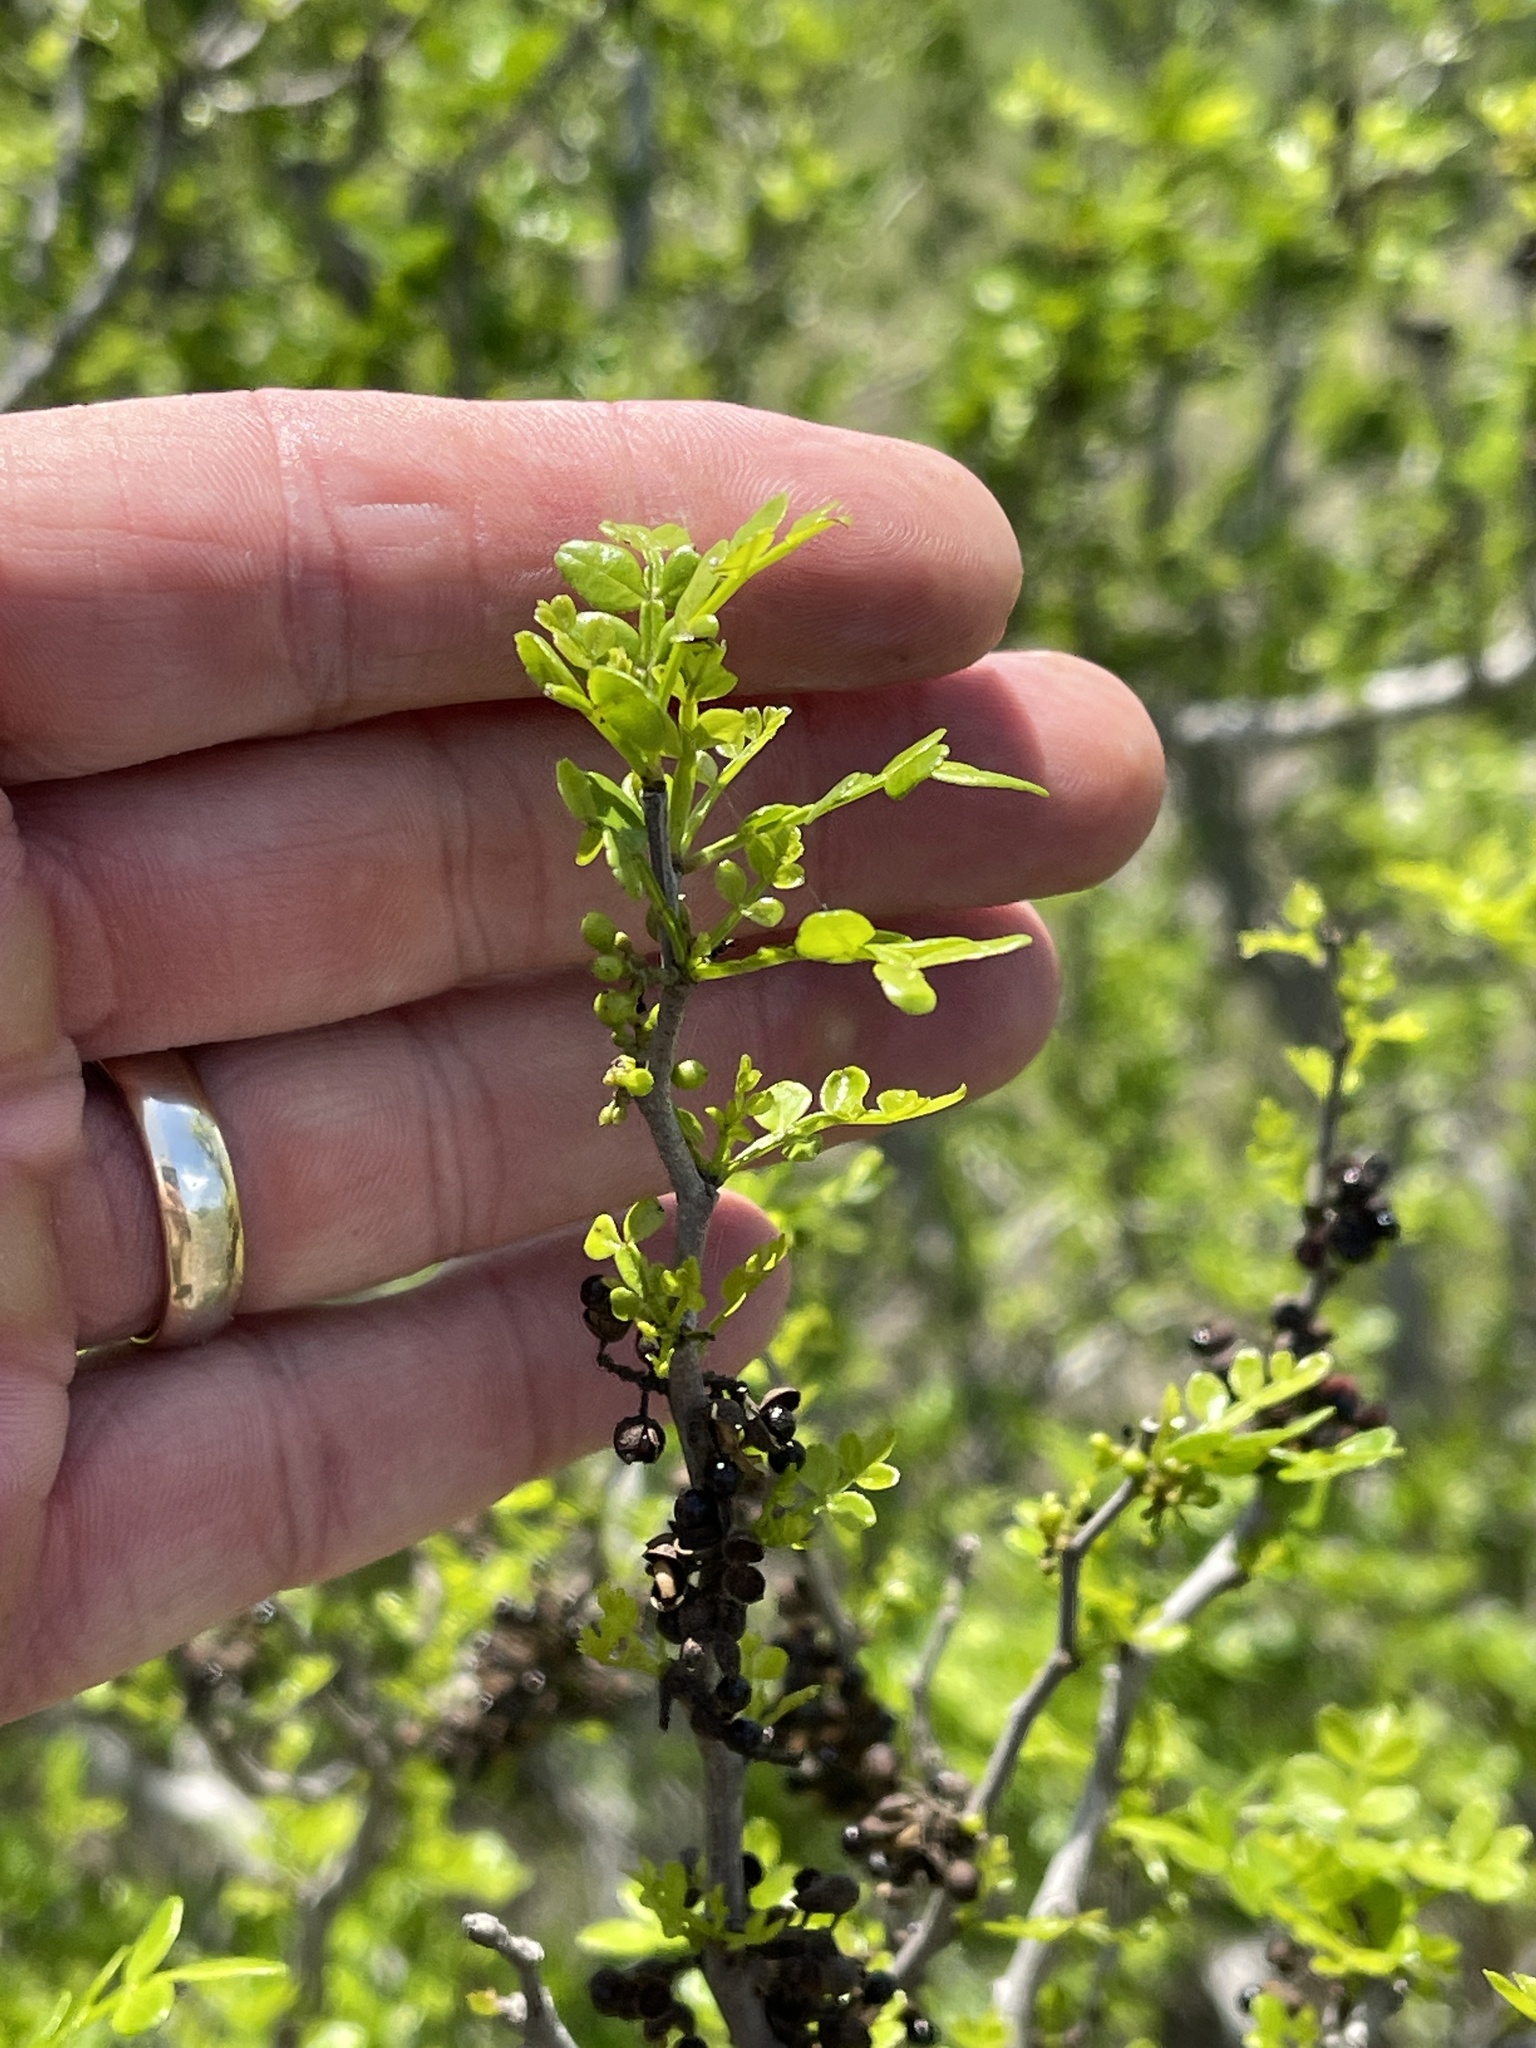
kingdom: Plantae
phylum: Tracheophyta
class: Magnoliopsida
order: Sapindales
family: Rutaceae
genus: Zanthoxylum
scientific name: Zanthoxylum fagara
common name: Lime prickly-ash
